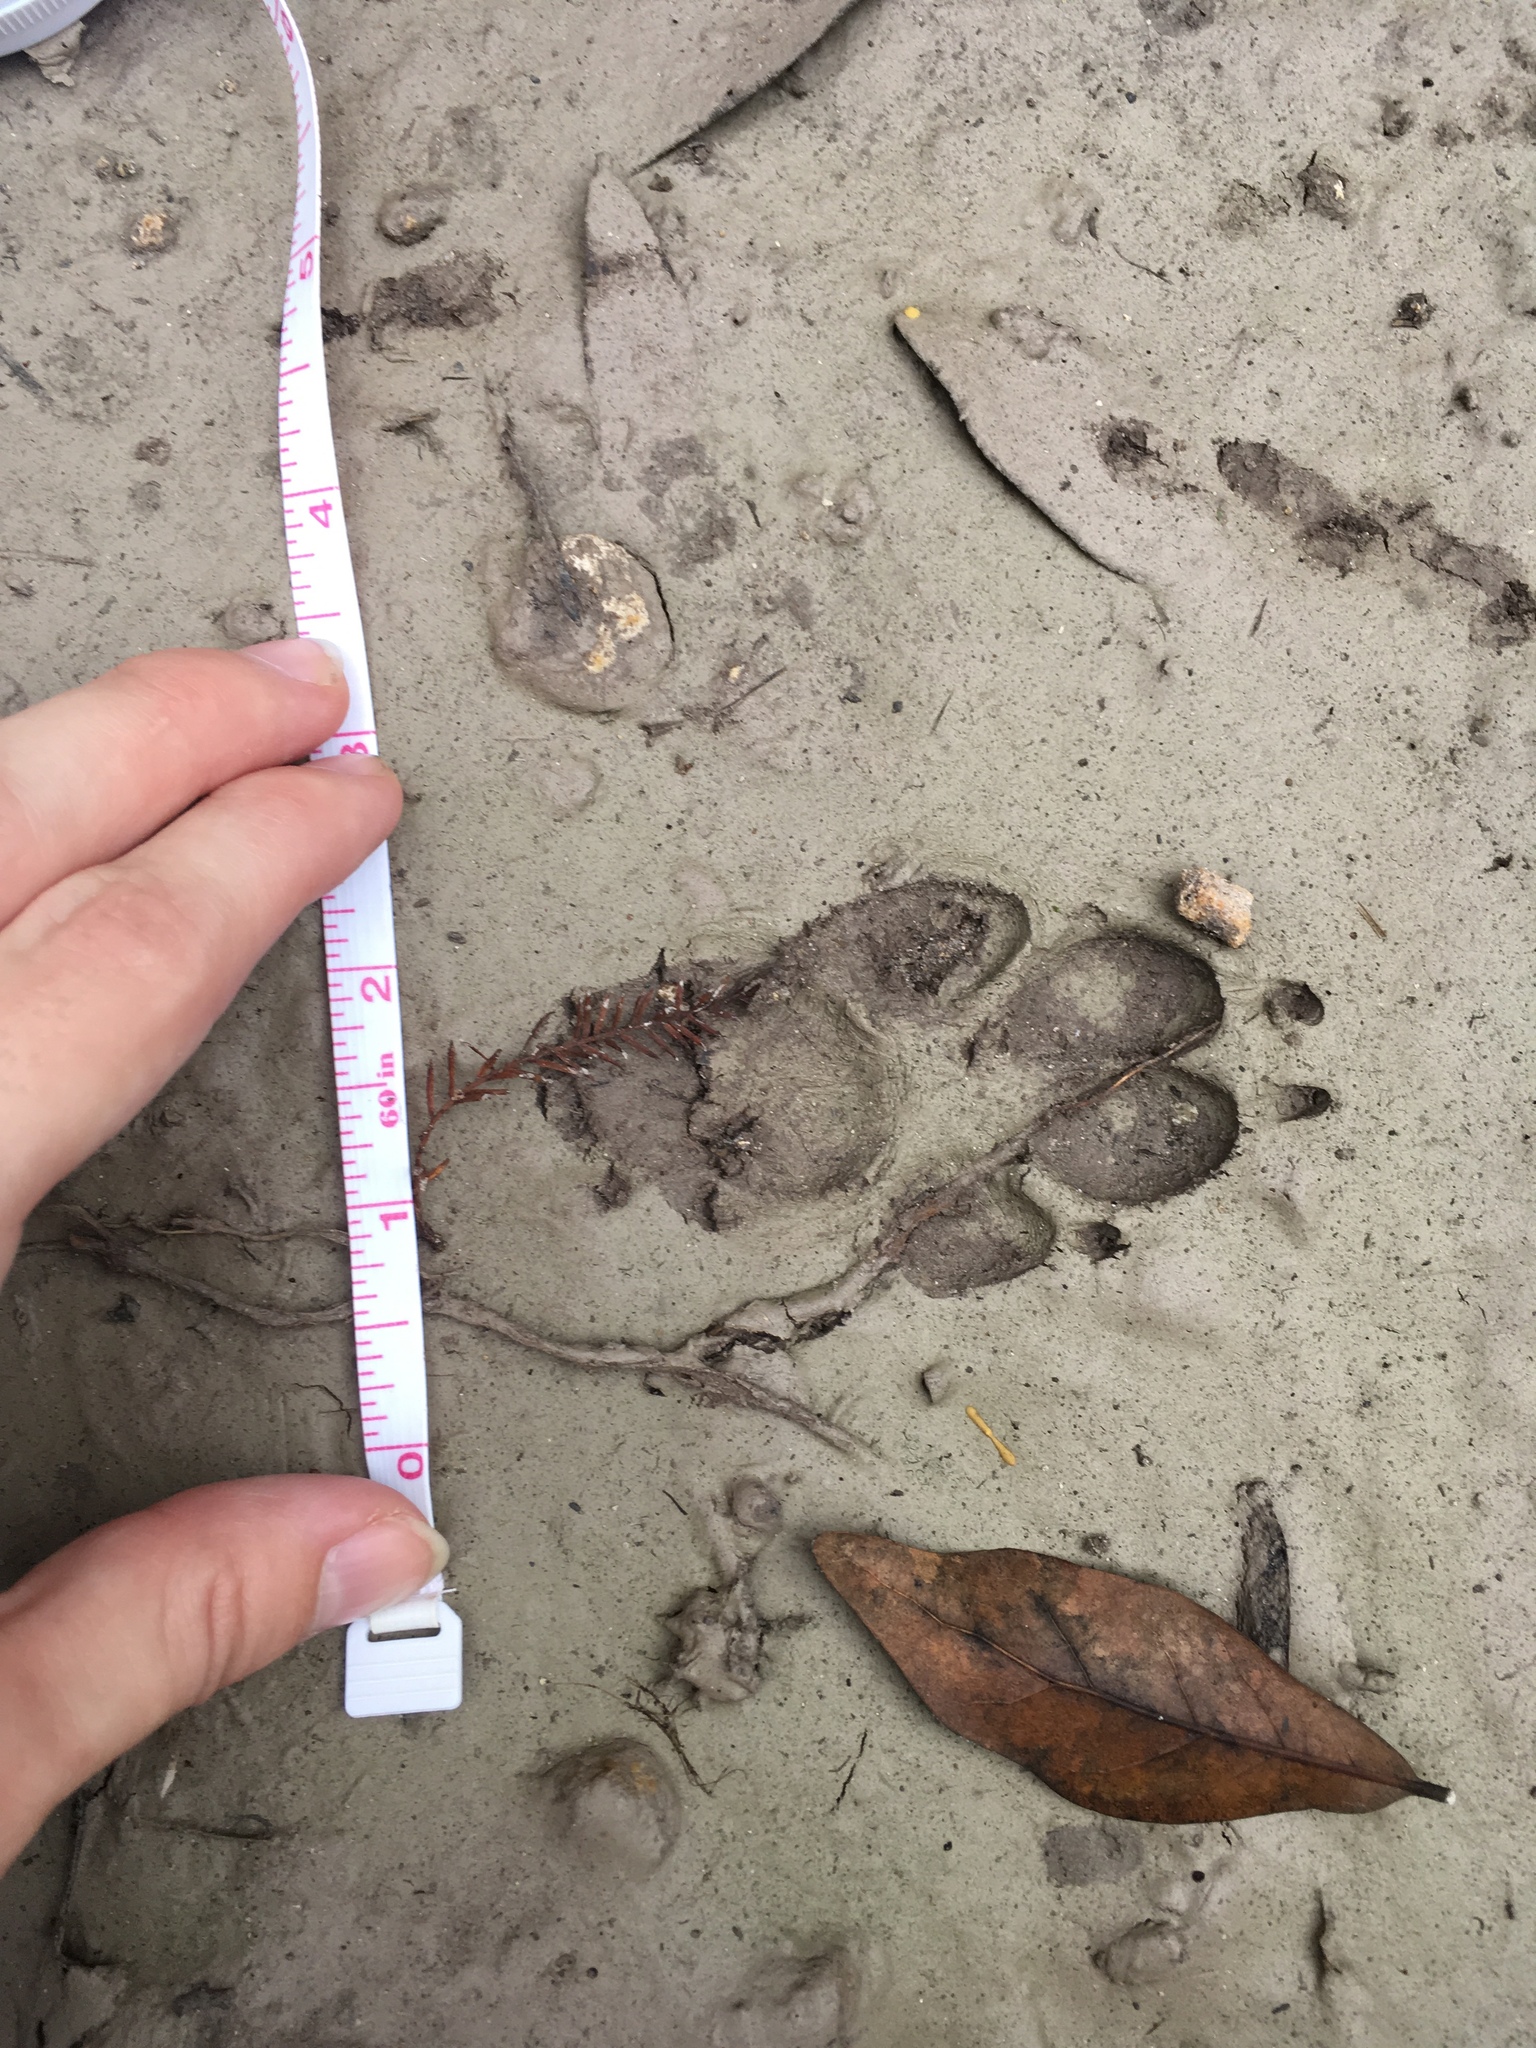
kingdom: Animalia
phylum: Chordata
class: Mammalia
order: Carnivora
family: Canidae
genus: Canis
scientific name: Canis latrans
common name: Coyote
